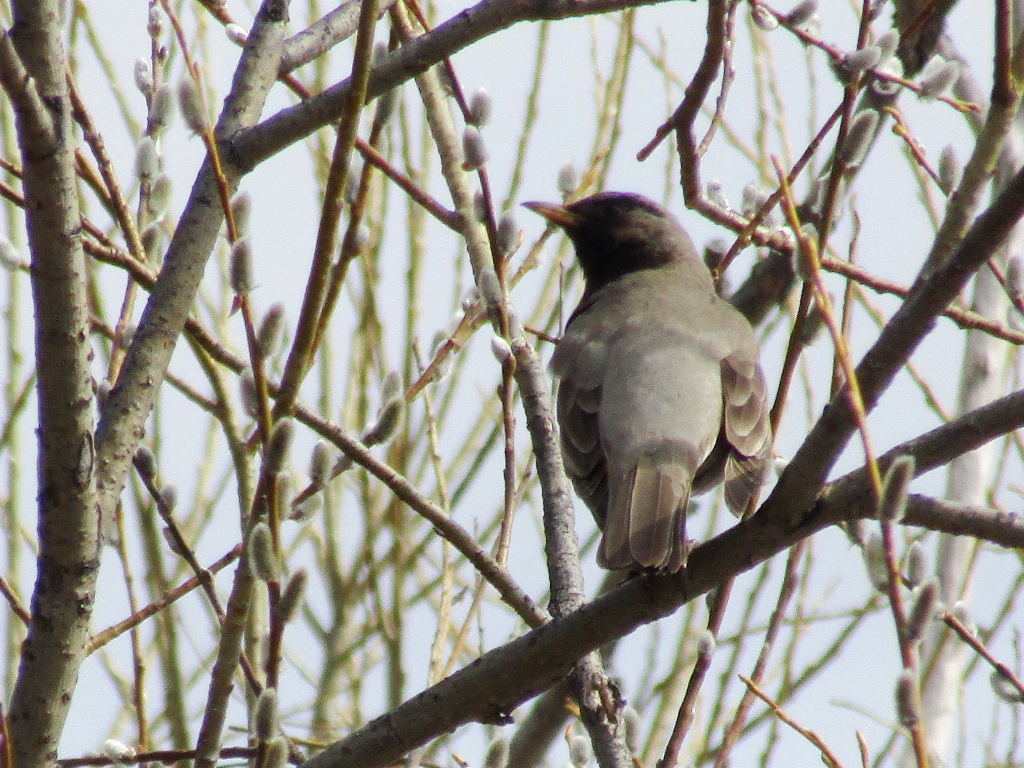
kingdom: Animalia
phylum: Chordata
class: Aves
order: Passeriformes
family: Turdidae
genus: Turdus
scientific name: Turdus atrogularis
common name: Black-throated thrush
